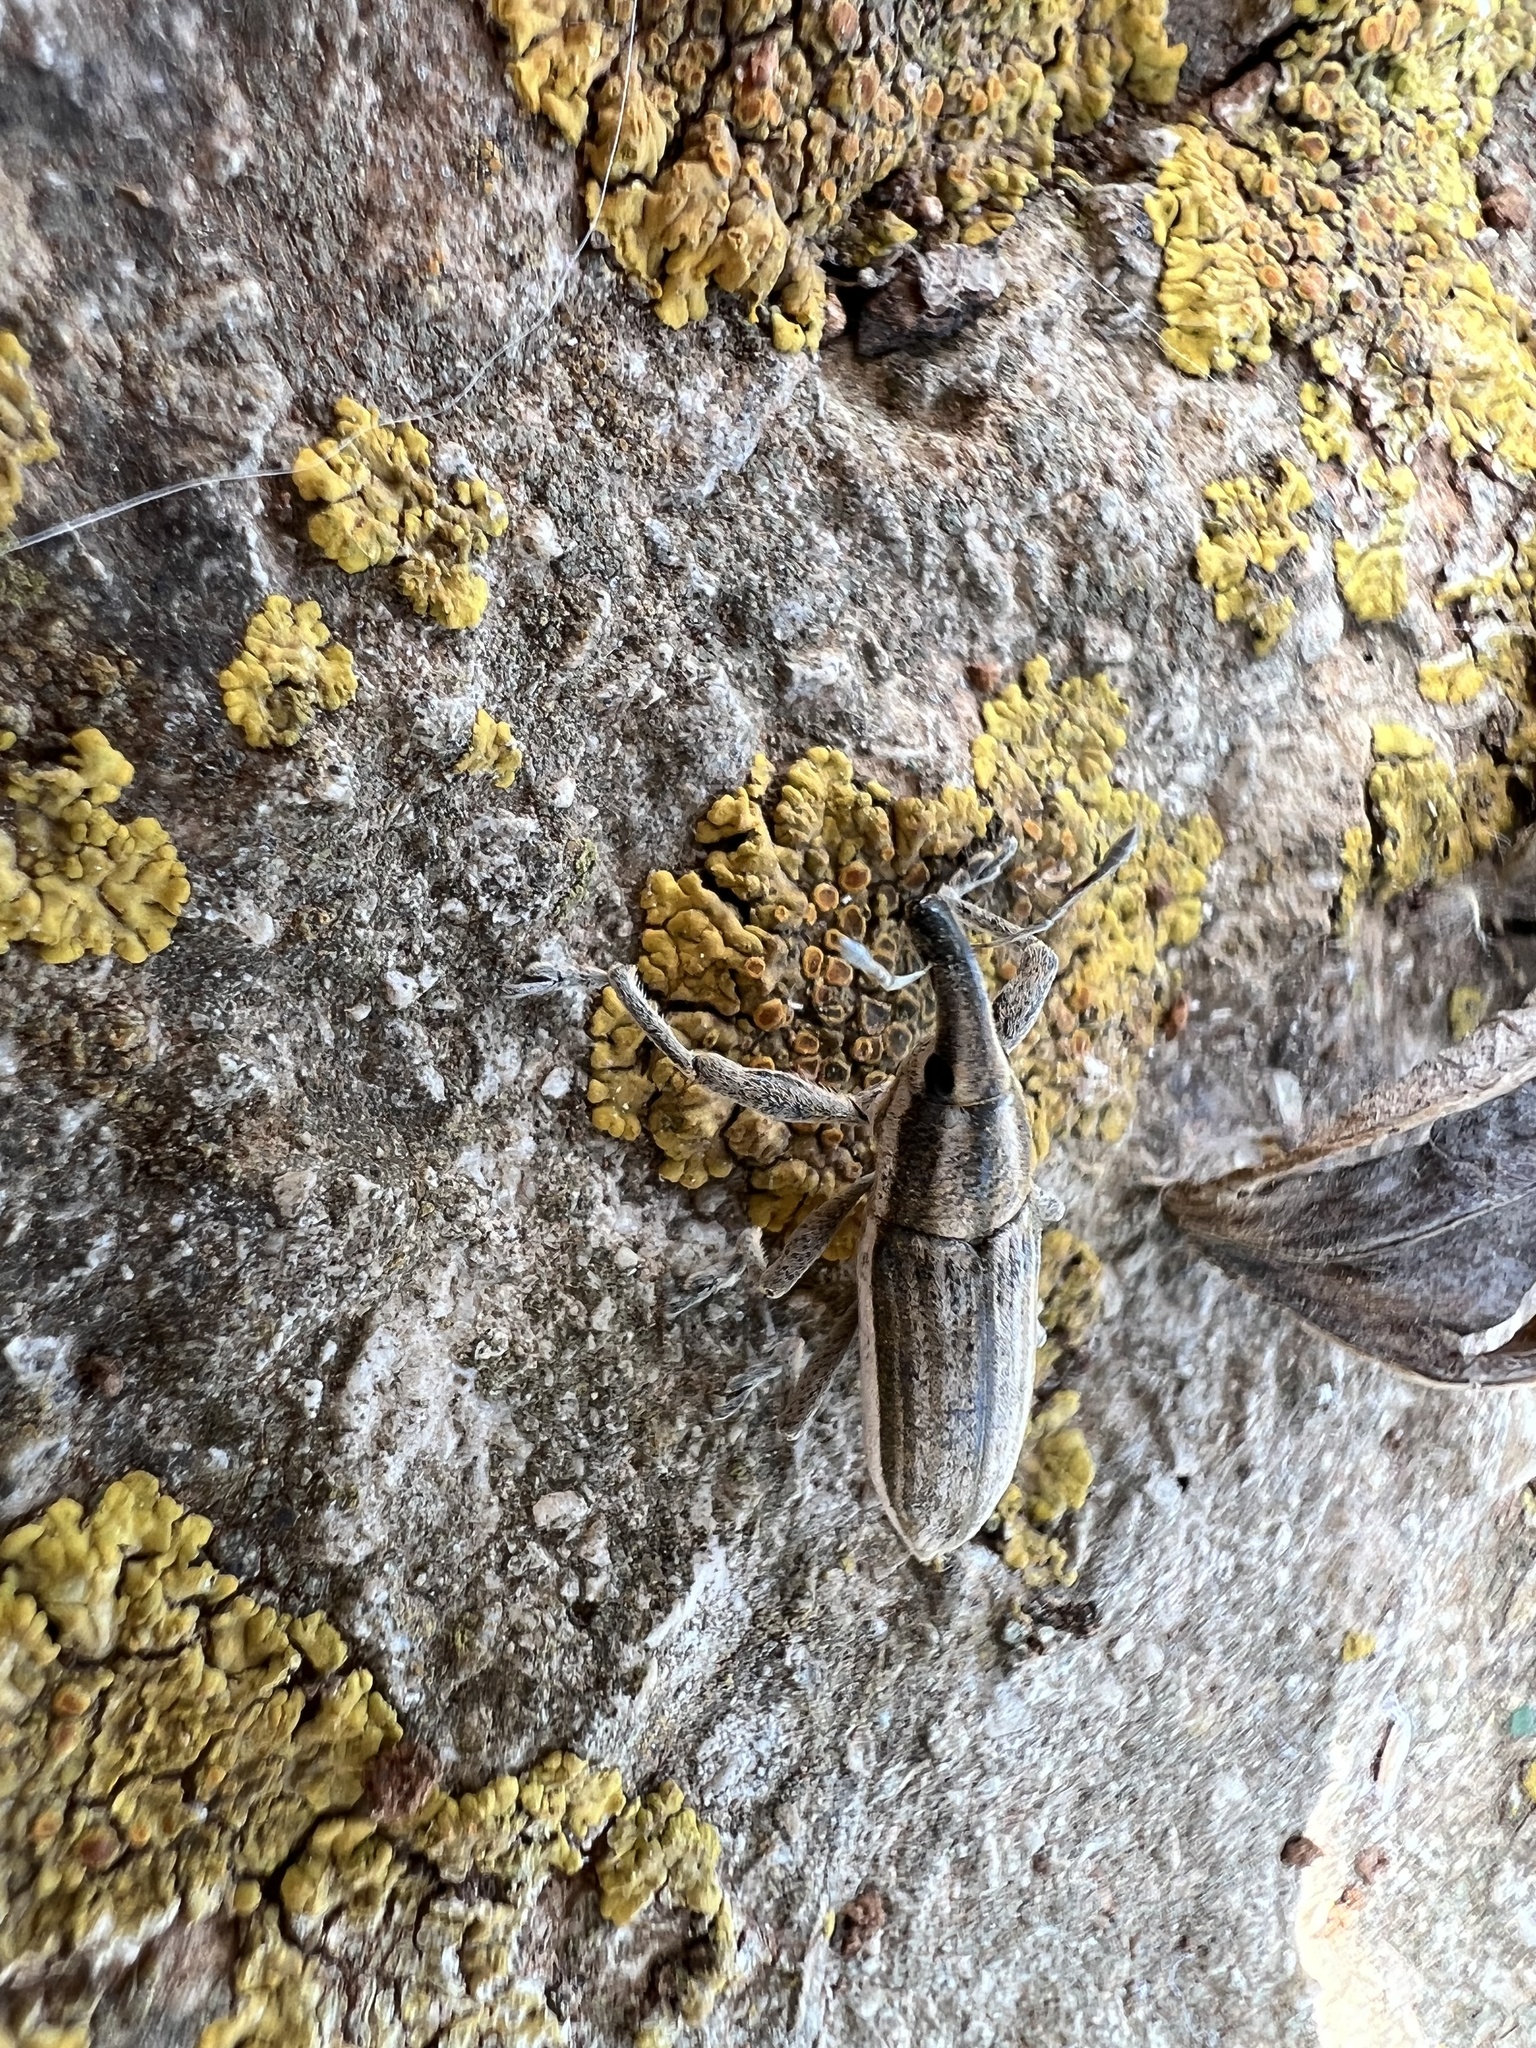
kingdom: Animalia
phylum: Arthropoda
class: Insecta
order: Coleoptera
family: Curculionidae
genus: Lixus
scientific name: Lixus anguinus
